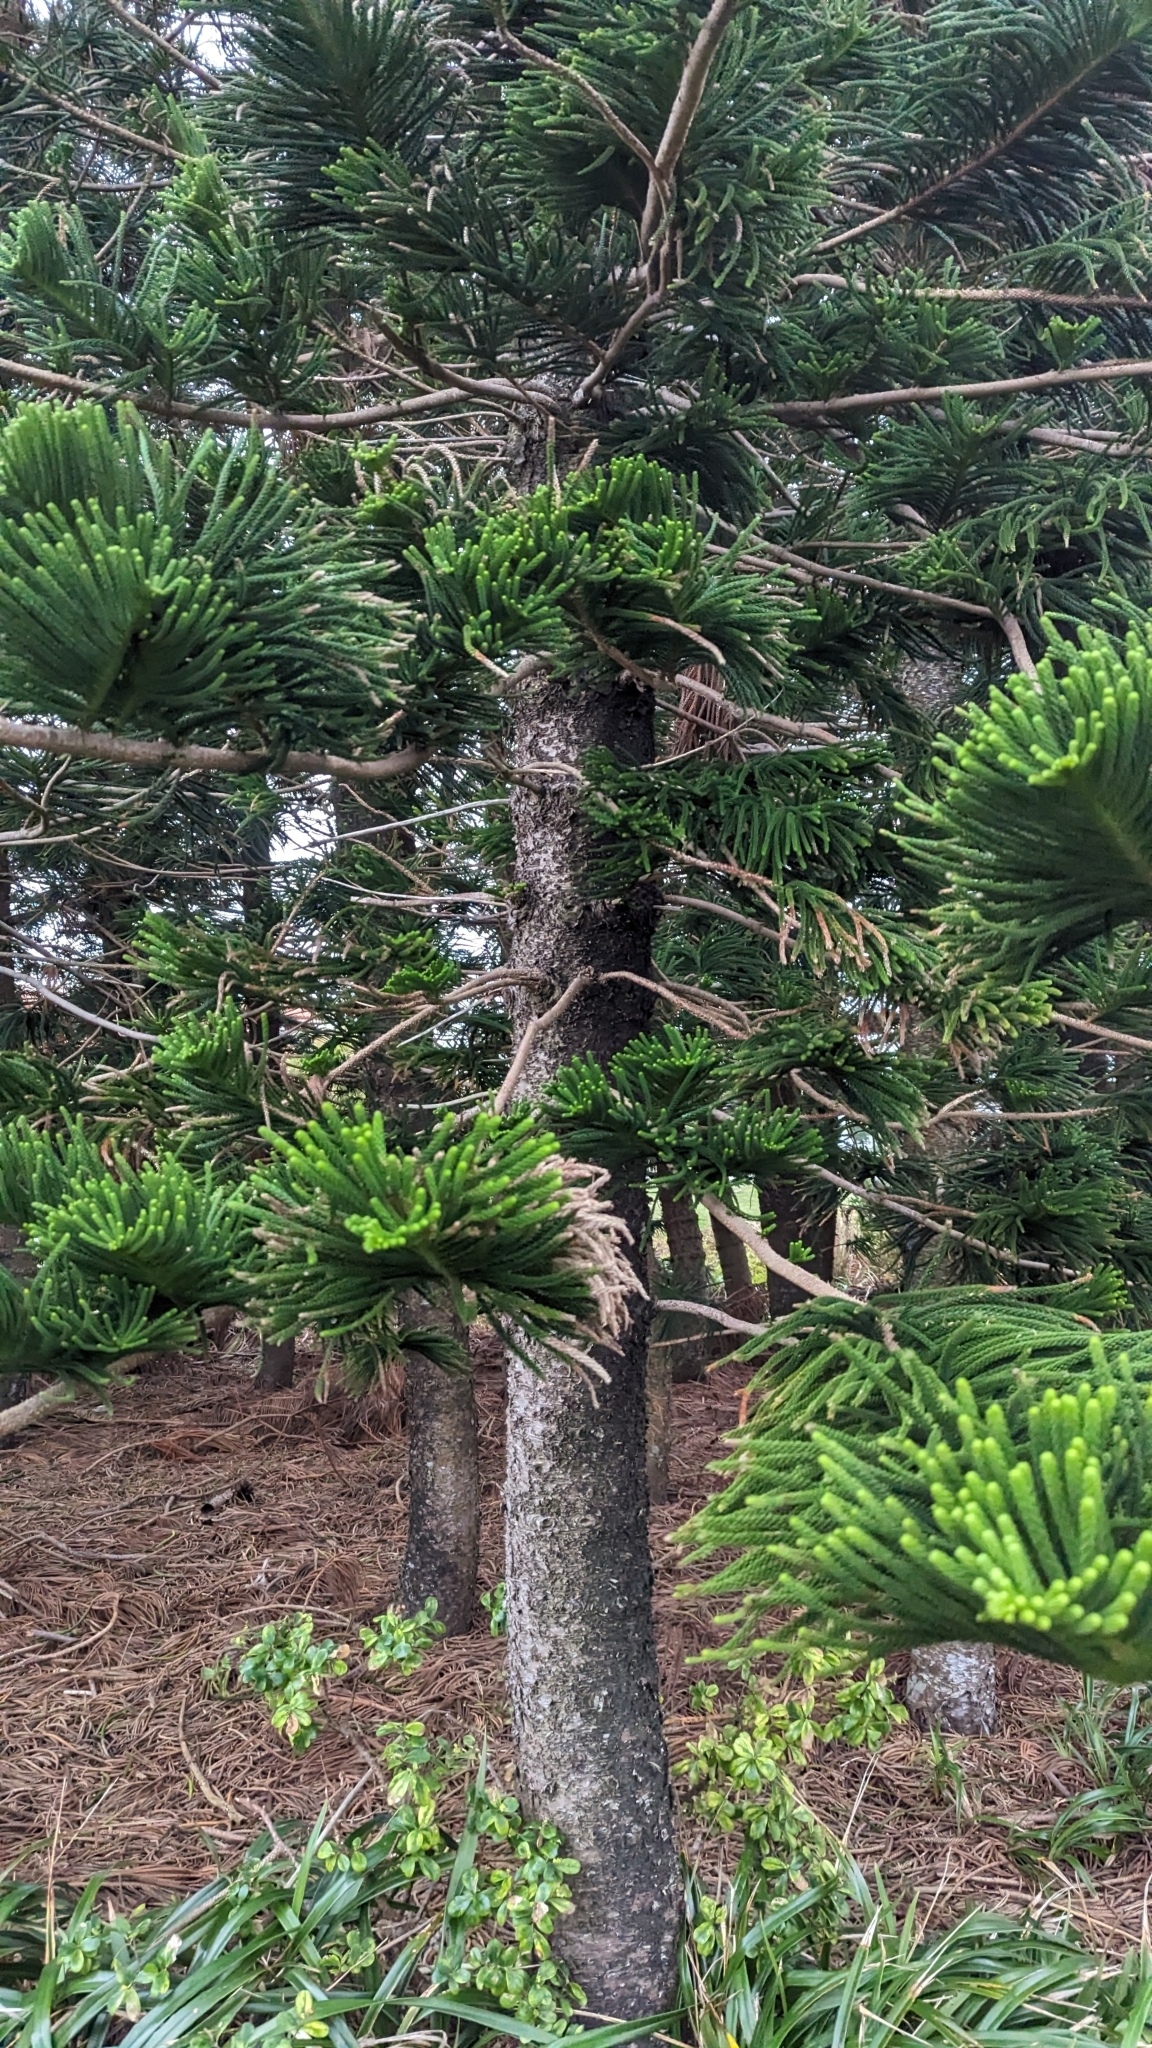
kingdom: Plantae
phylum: Tracheophyta
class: Pinopsida
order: Pinales
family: Araucariaceae
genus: Araucaria
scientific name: Araucaria heterophylla
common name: Norfolk island pine
